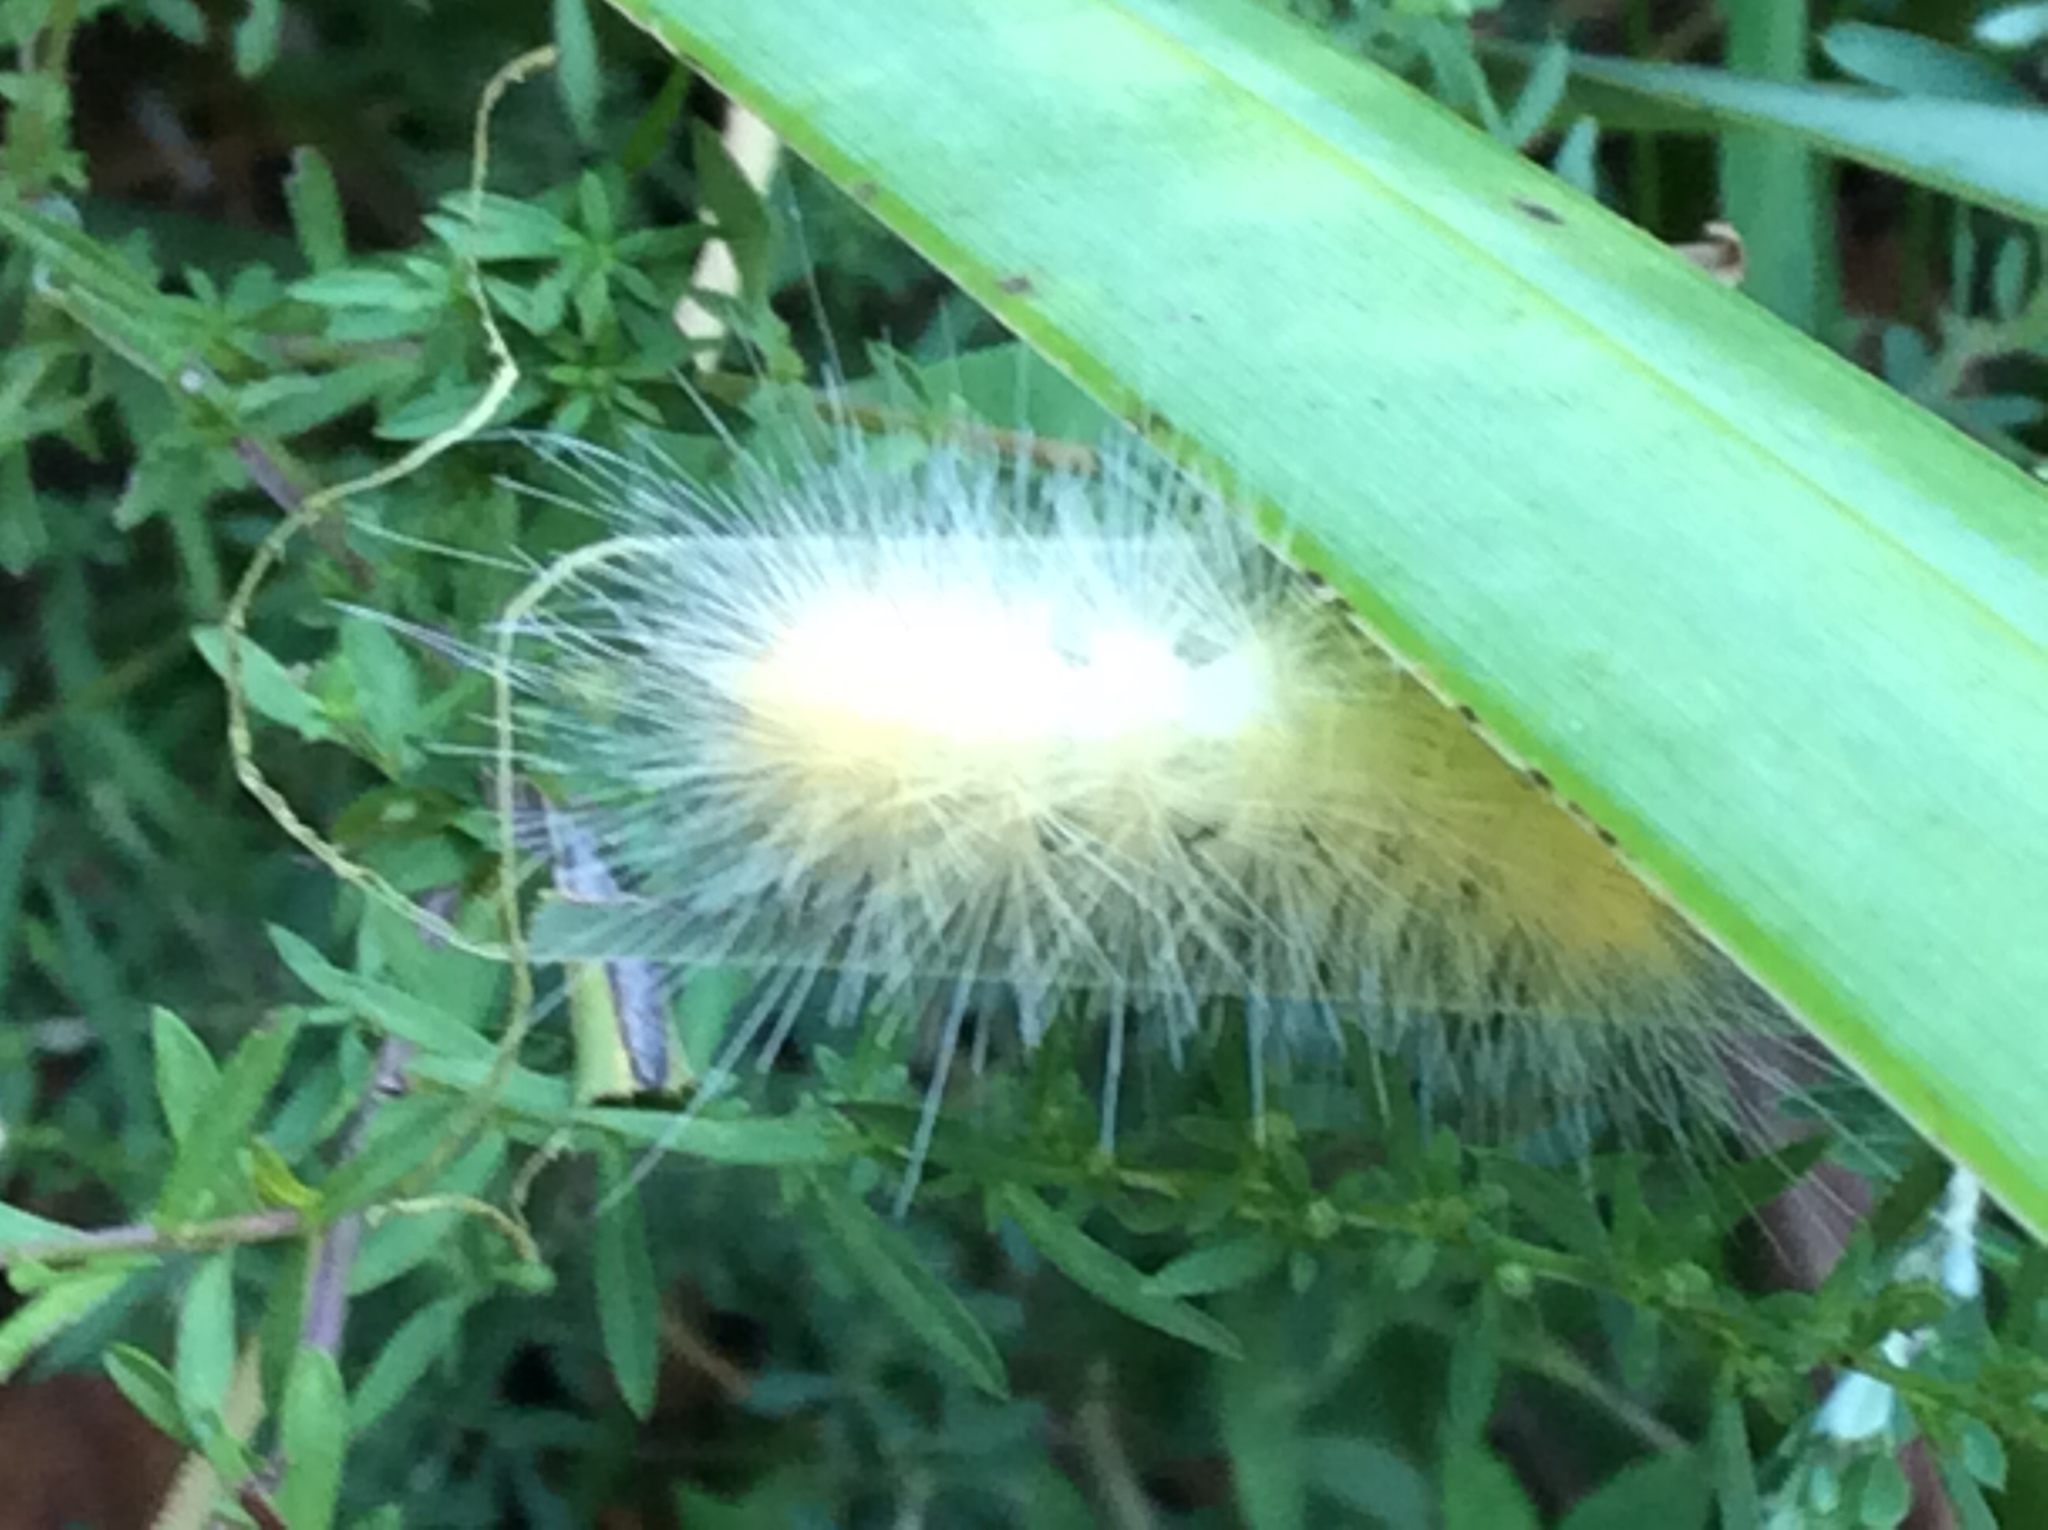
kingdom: Animalia
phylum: Arthropoda
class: Insecta
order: Lepidoptera
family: Erebidae
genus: Spilosoma
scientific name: Spilosoma virginica
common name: Virginia tiger moth
